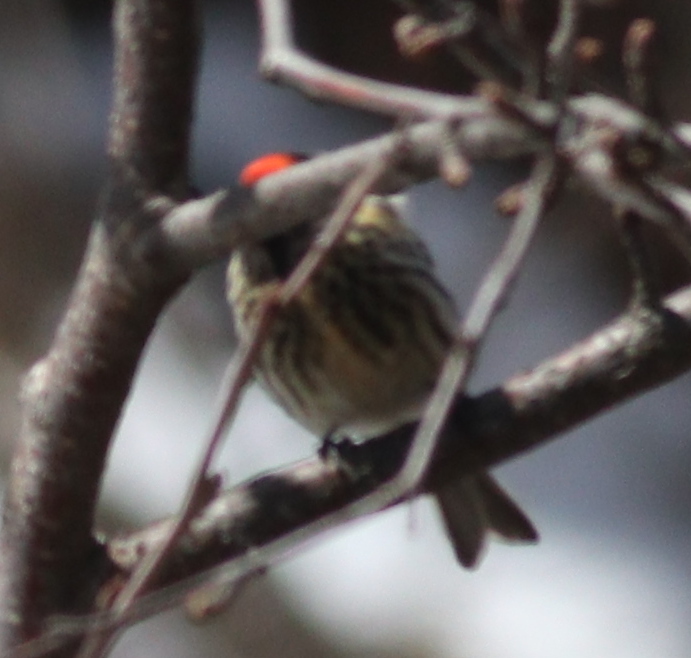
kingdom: Animalia
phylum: Chordata
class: Aves
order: Passeriformes
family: Fringillidae
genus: Serinus
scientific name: Serinus pusillus
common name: Red-fronted serin
